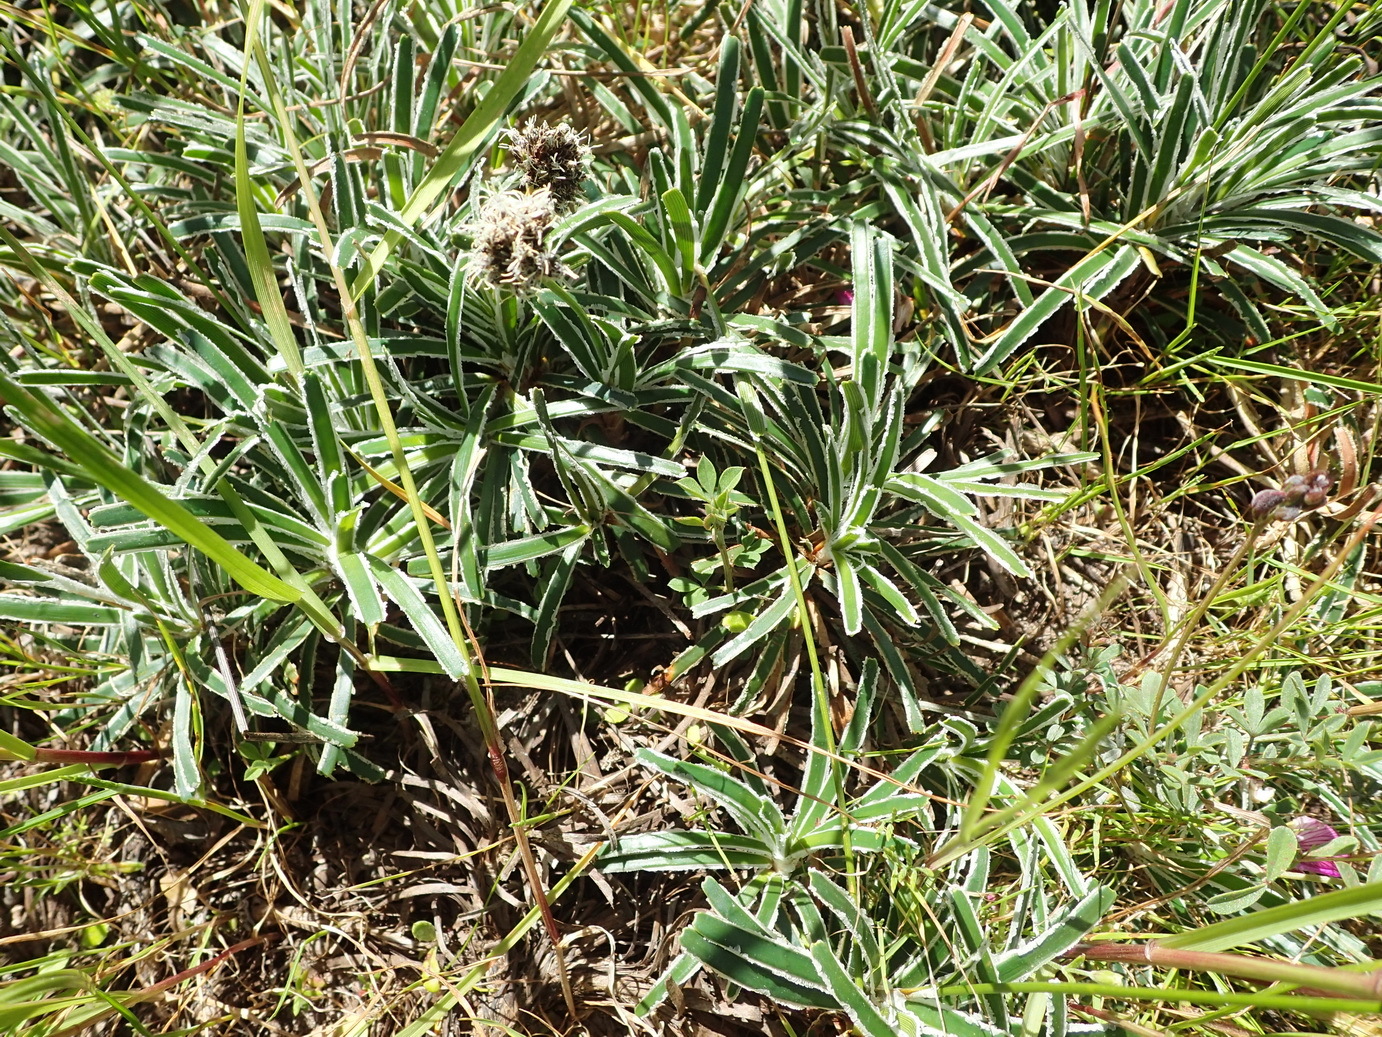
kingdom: Plantae
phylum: Tracheophyta
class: Liliopsida
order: Poales
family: Cyperaceae
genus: Ficinia
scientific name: Ficinia truncata
